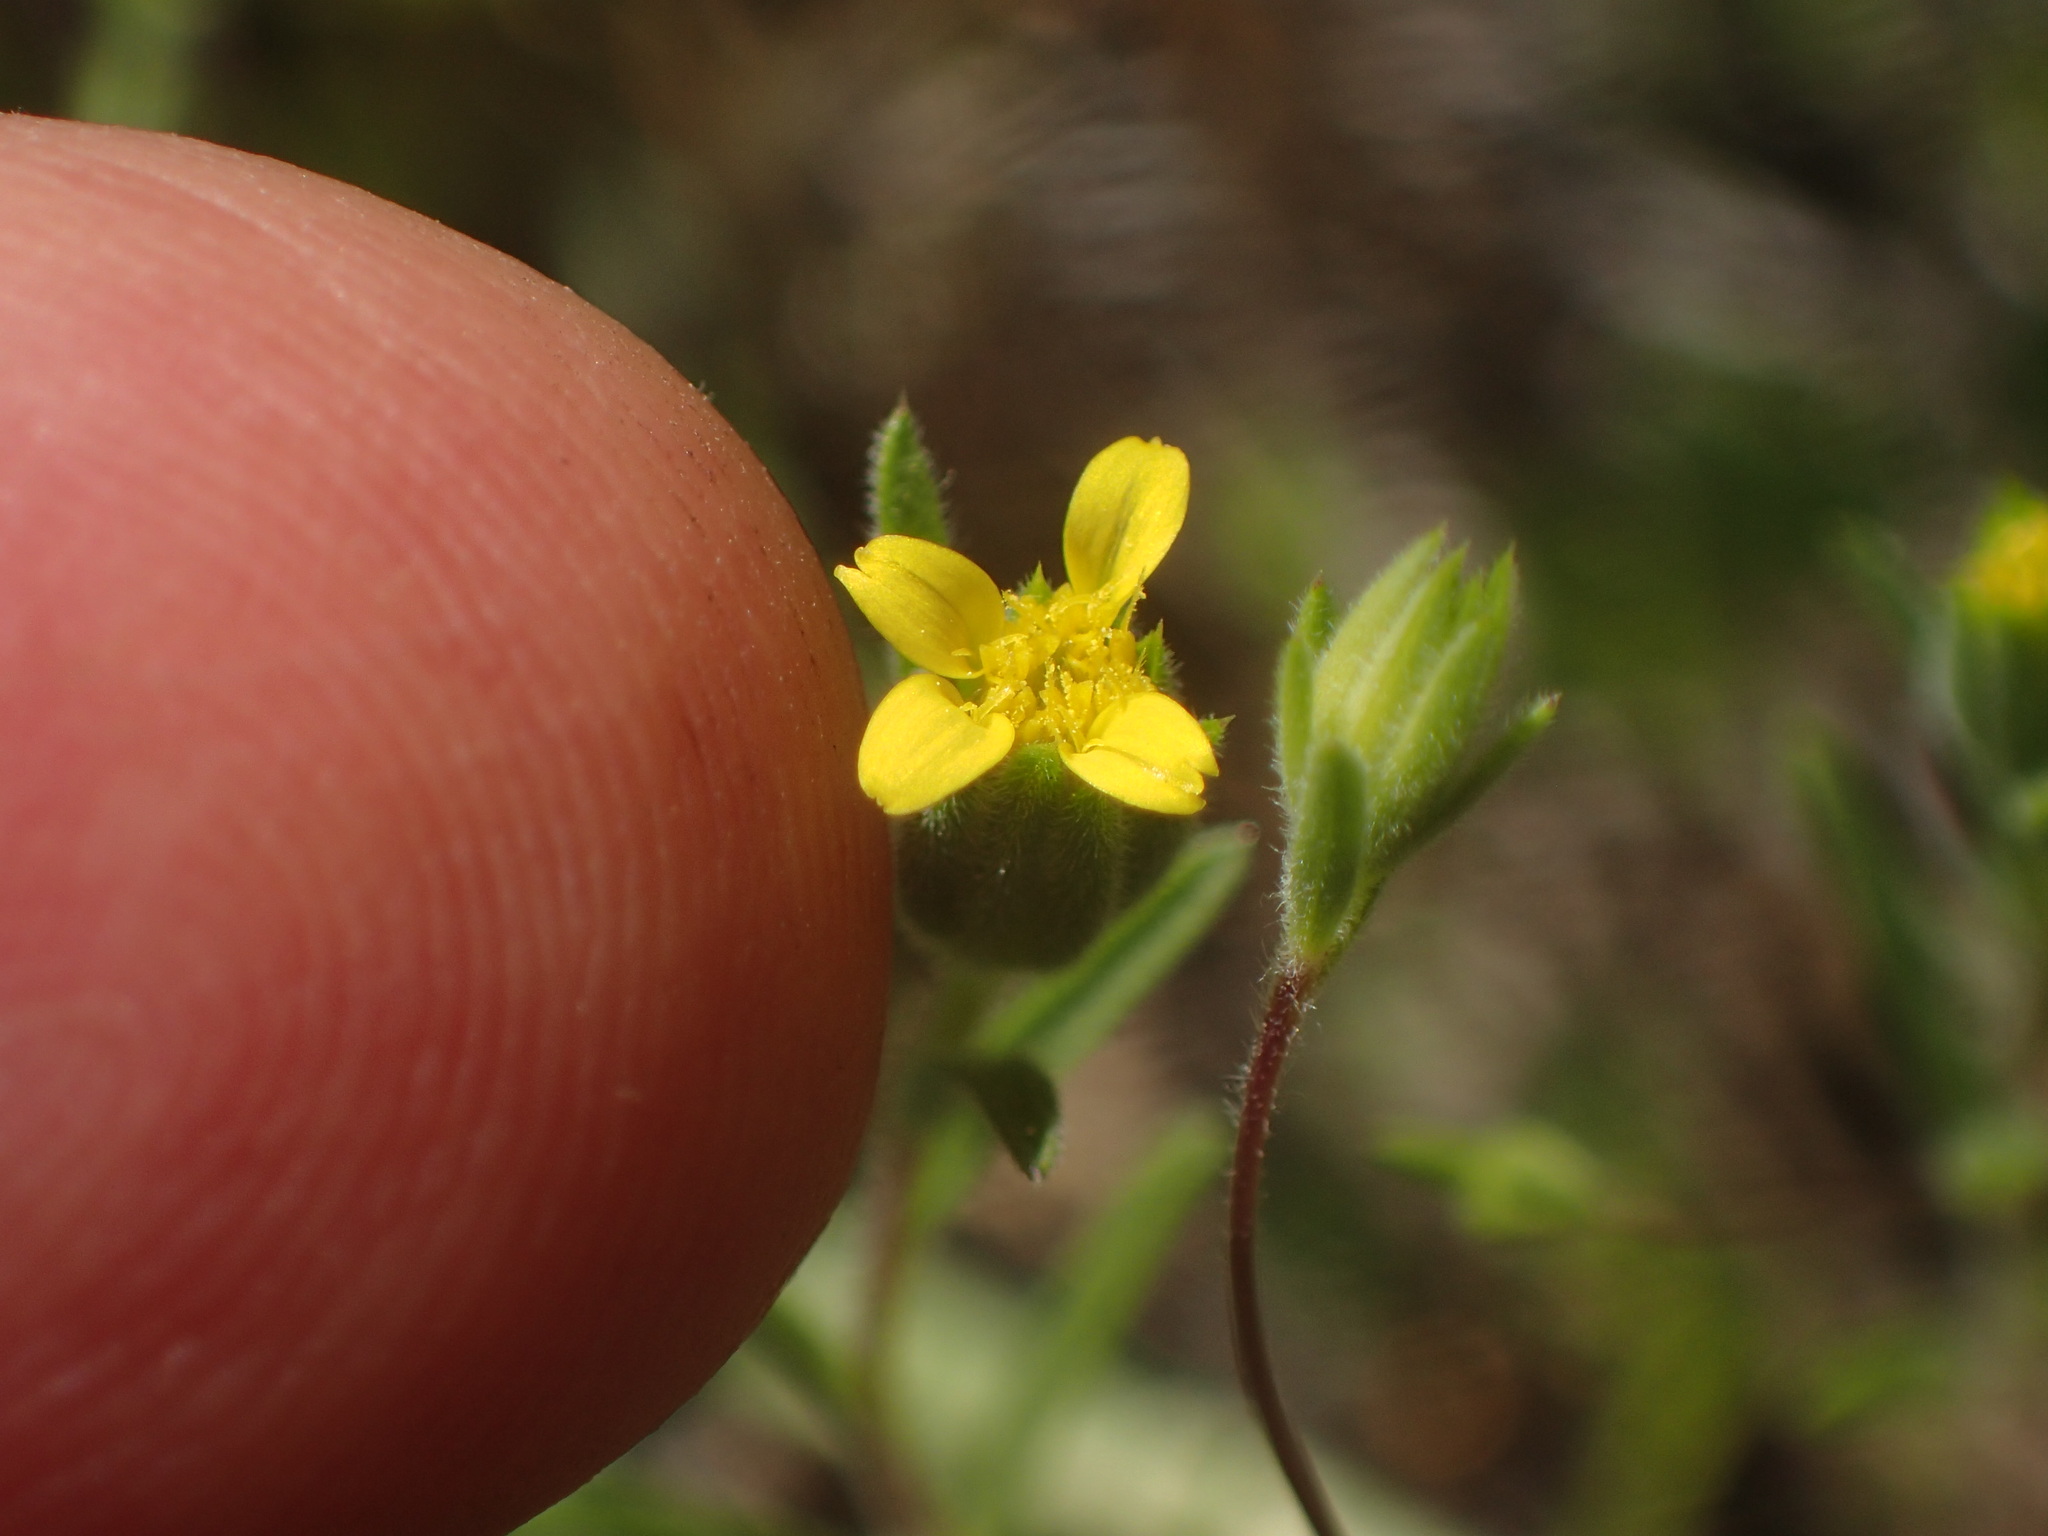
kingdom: Plantae
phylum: Tracheophyta
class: Magnoliopsida
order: Asterales
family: Asteraceae
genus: Rigiopappus
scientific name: Rigiopappus leptocladus
